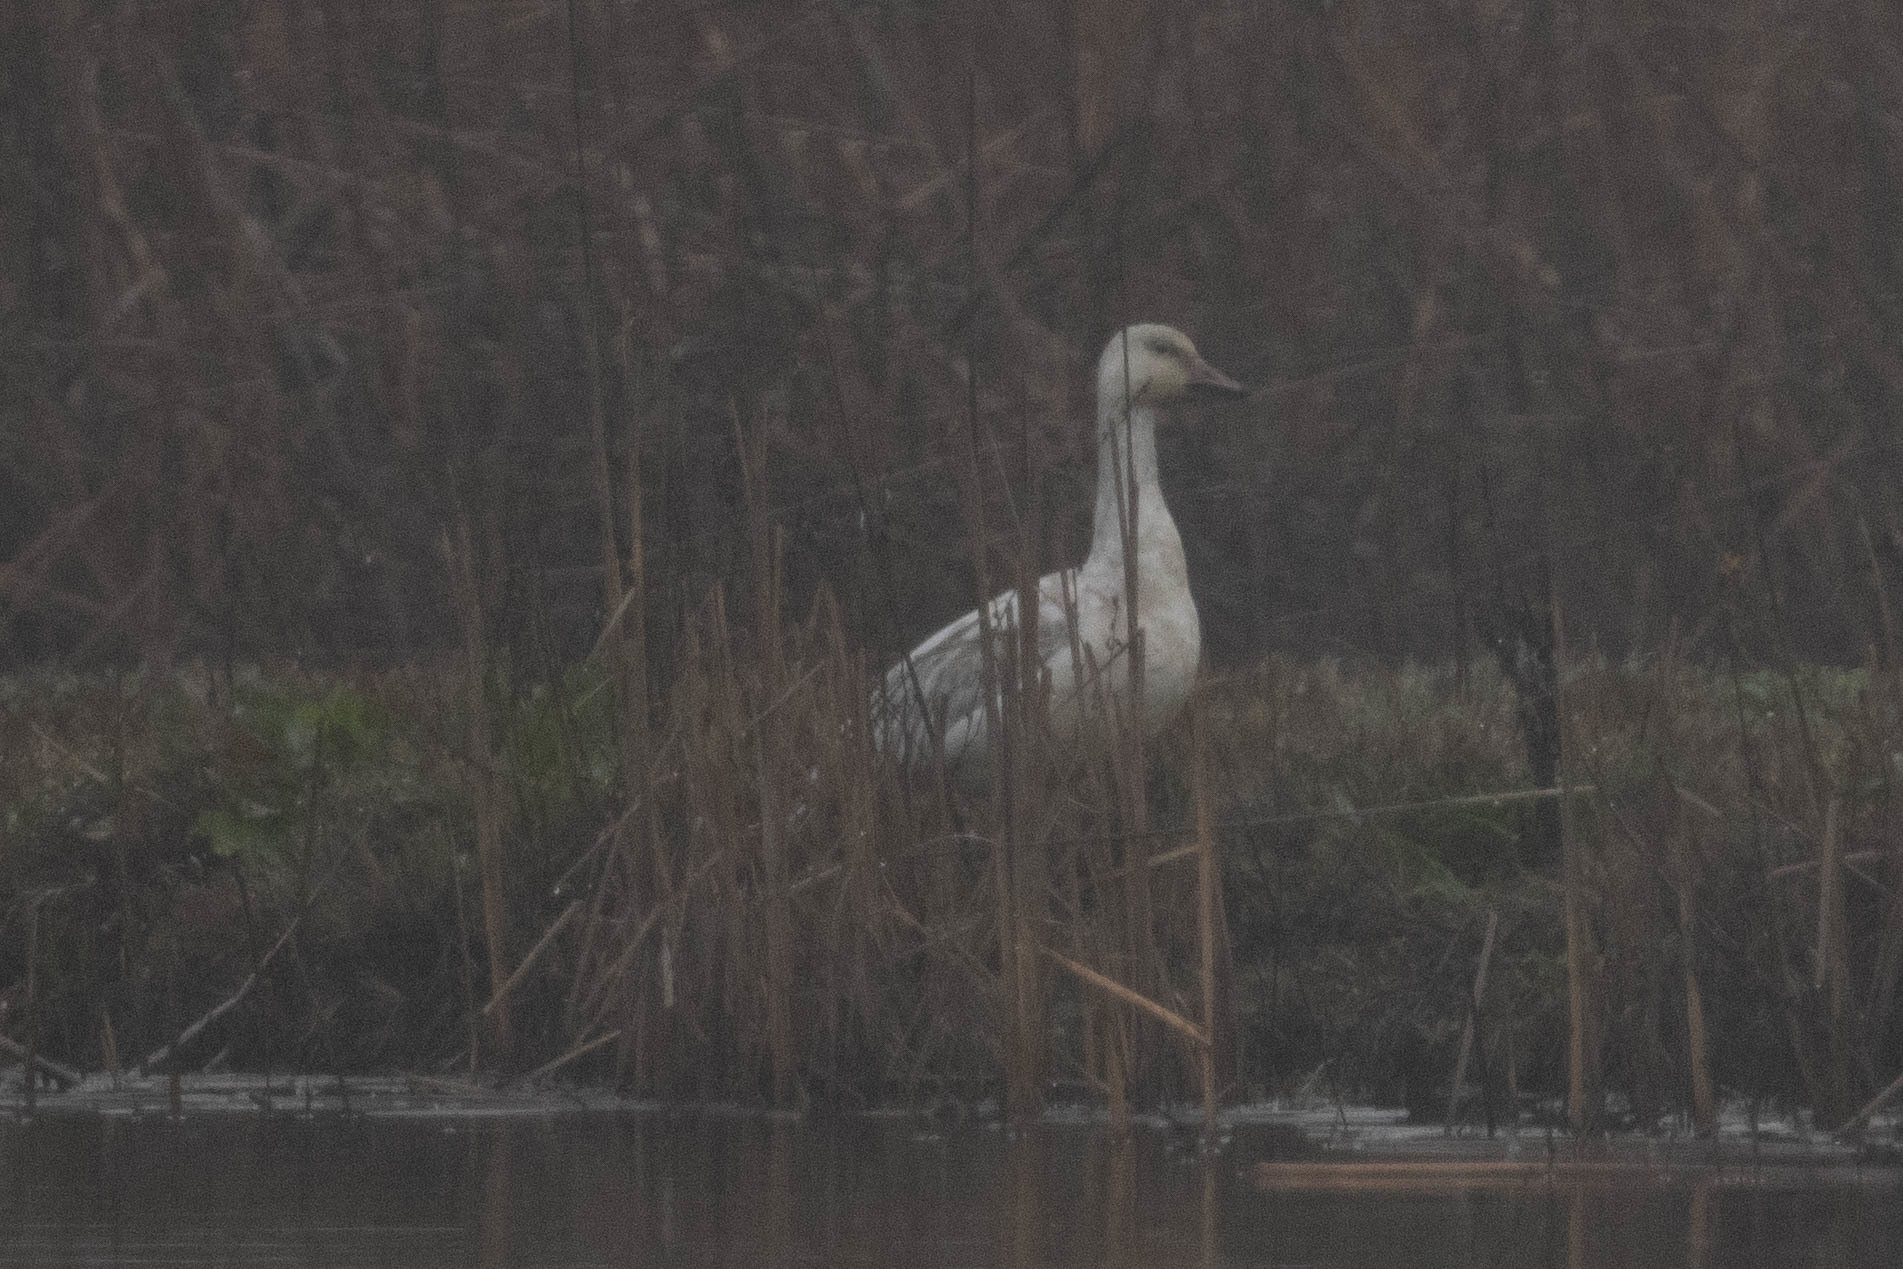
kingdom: Animalia
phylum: Chordata
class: Aves
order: Anseriformes
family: Anatidae
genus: Anser
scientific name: Anser caerulescens
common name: Snow goose
